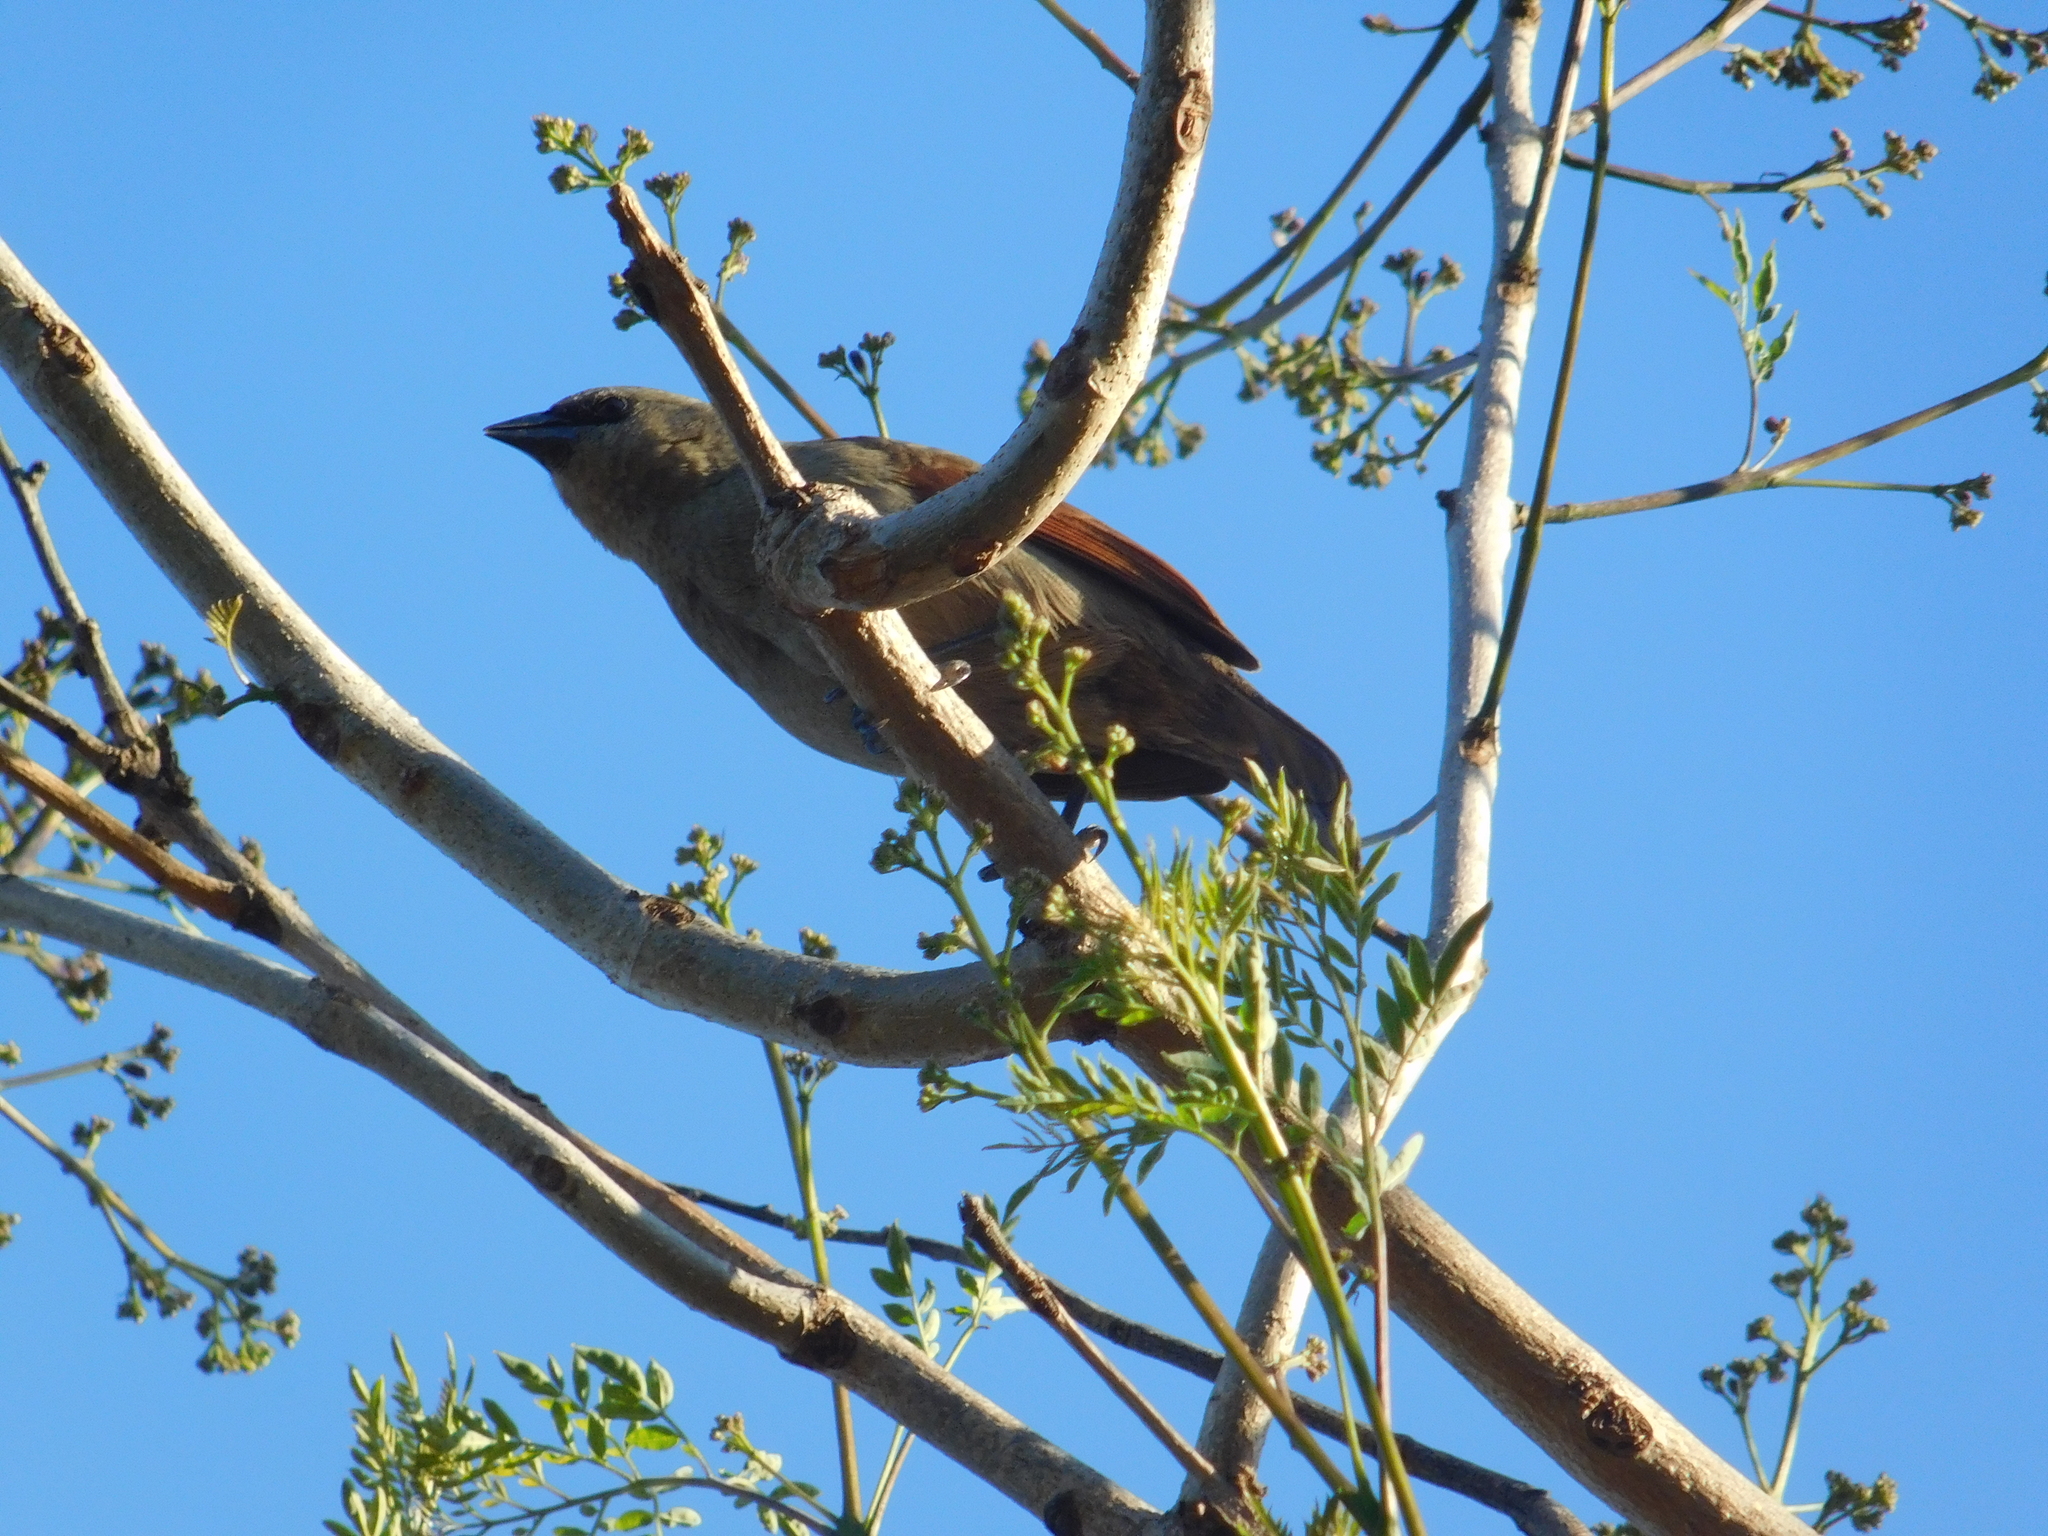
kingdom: Animalia
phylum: Chordata
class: Aves
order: Passeriformes
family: Icteridae
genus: Agelaioides
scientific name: Agelaioides badius
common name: Baywing
